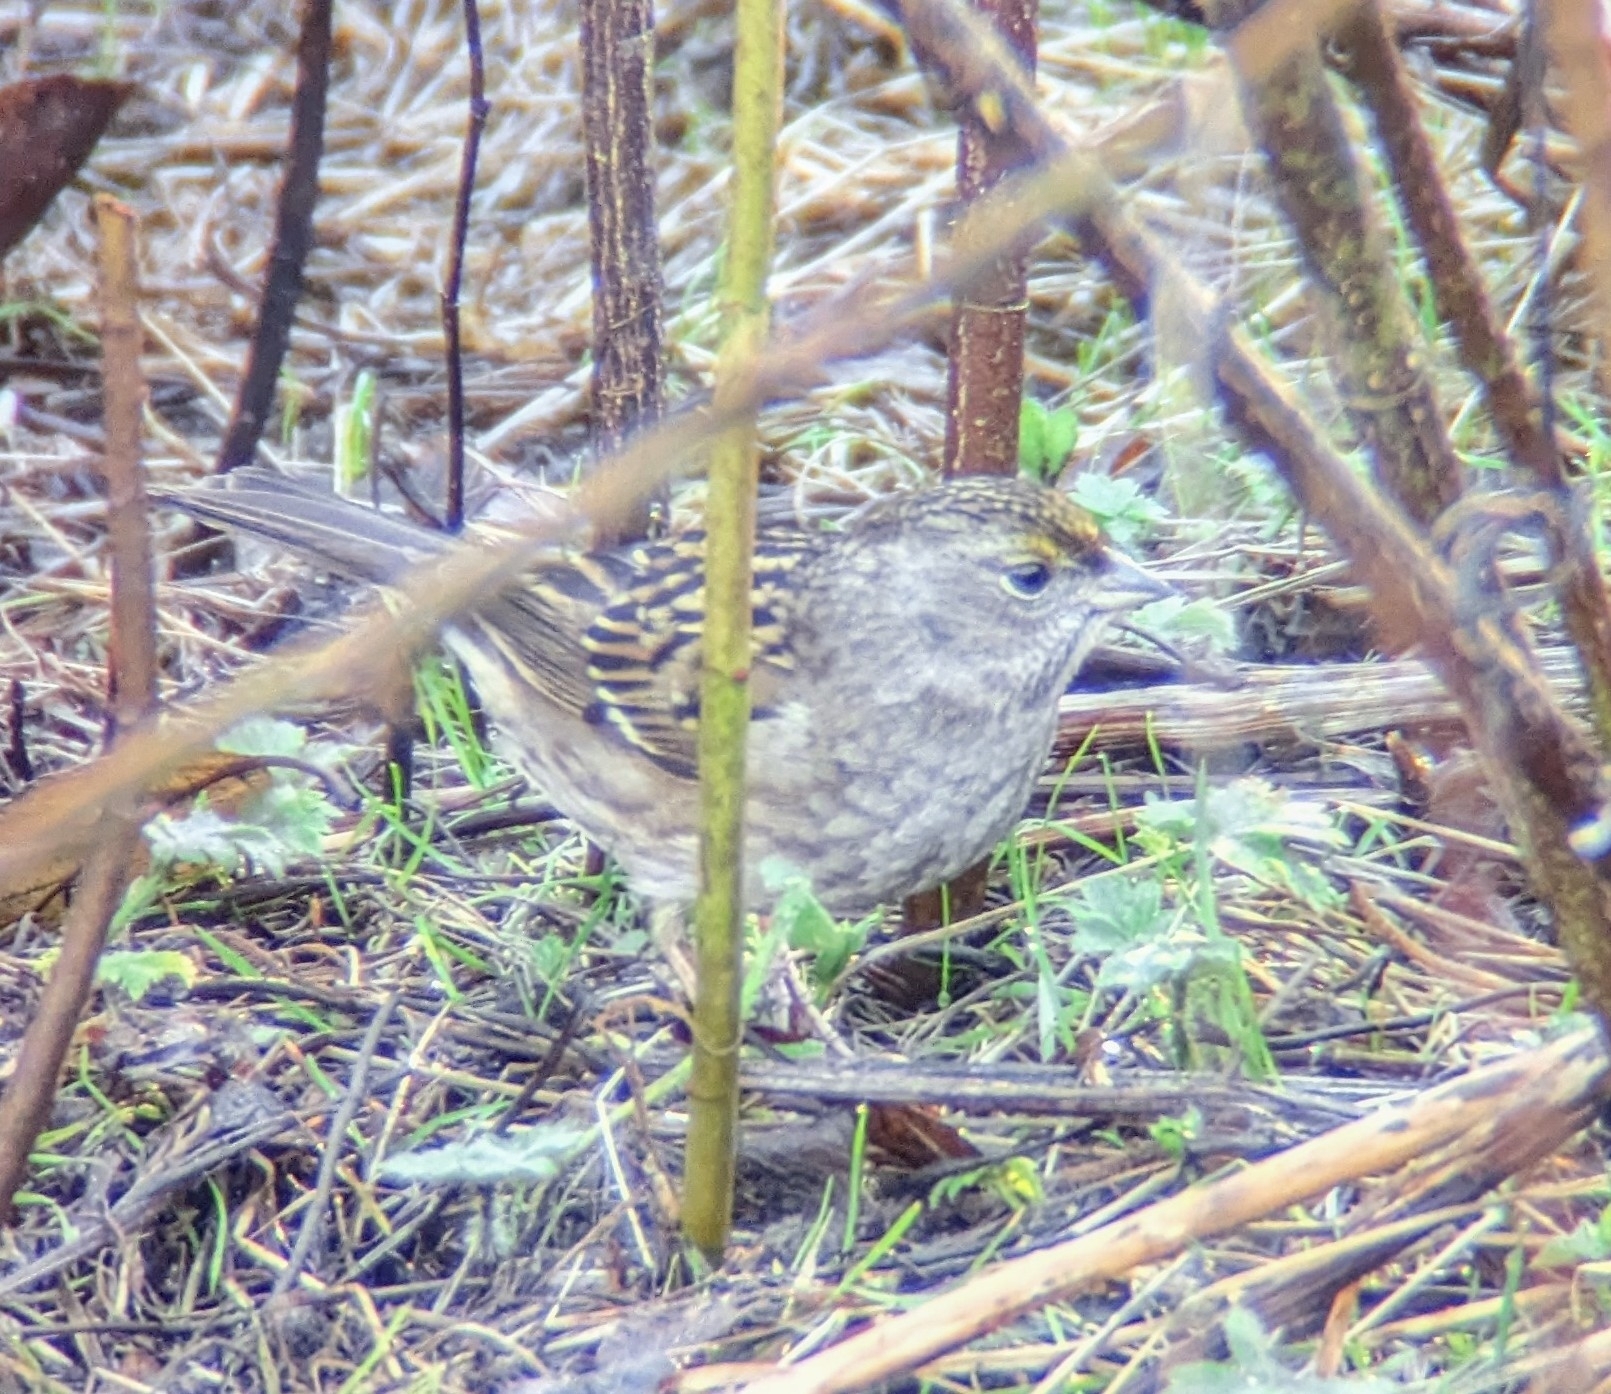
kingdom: Animalia
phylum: Chordata
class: Aves
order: Passeriformes
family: Passerellidae
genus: Zonotrichia
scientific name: Zonotrichia atricapilla
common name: Golden-crowned sparrow
